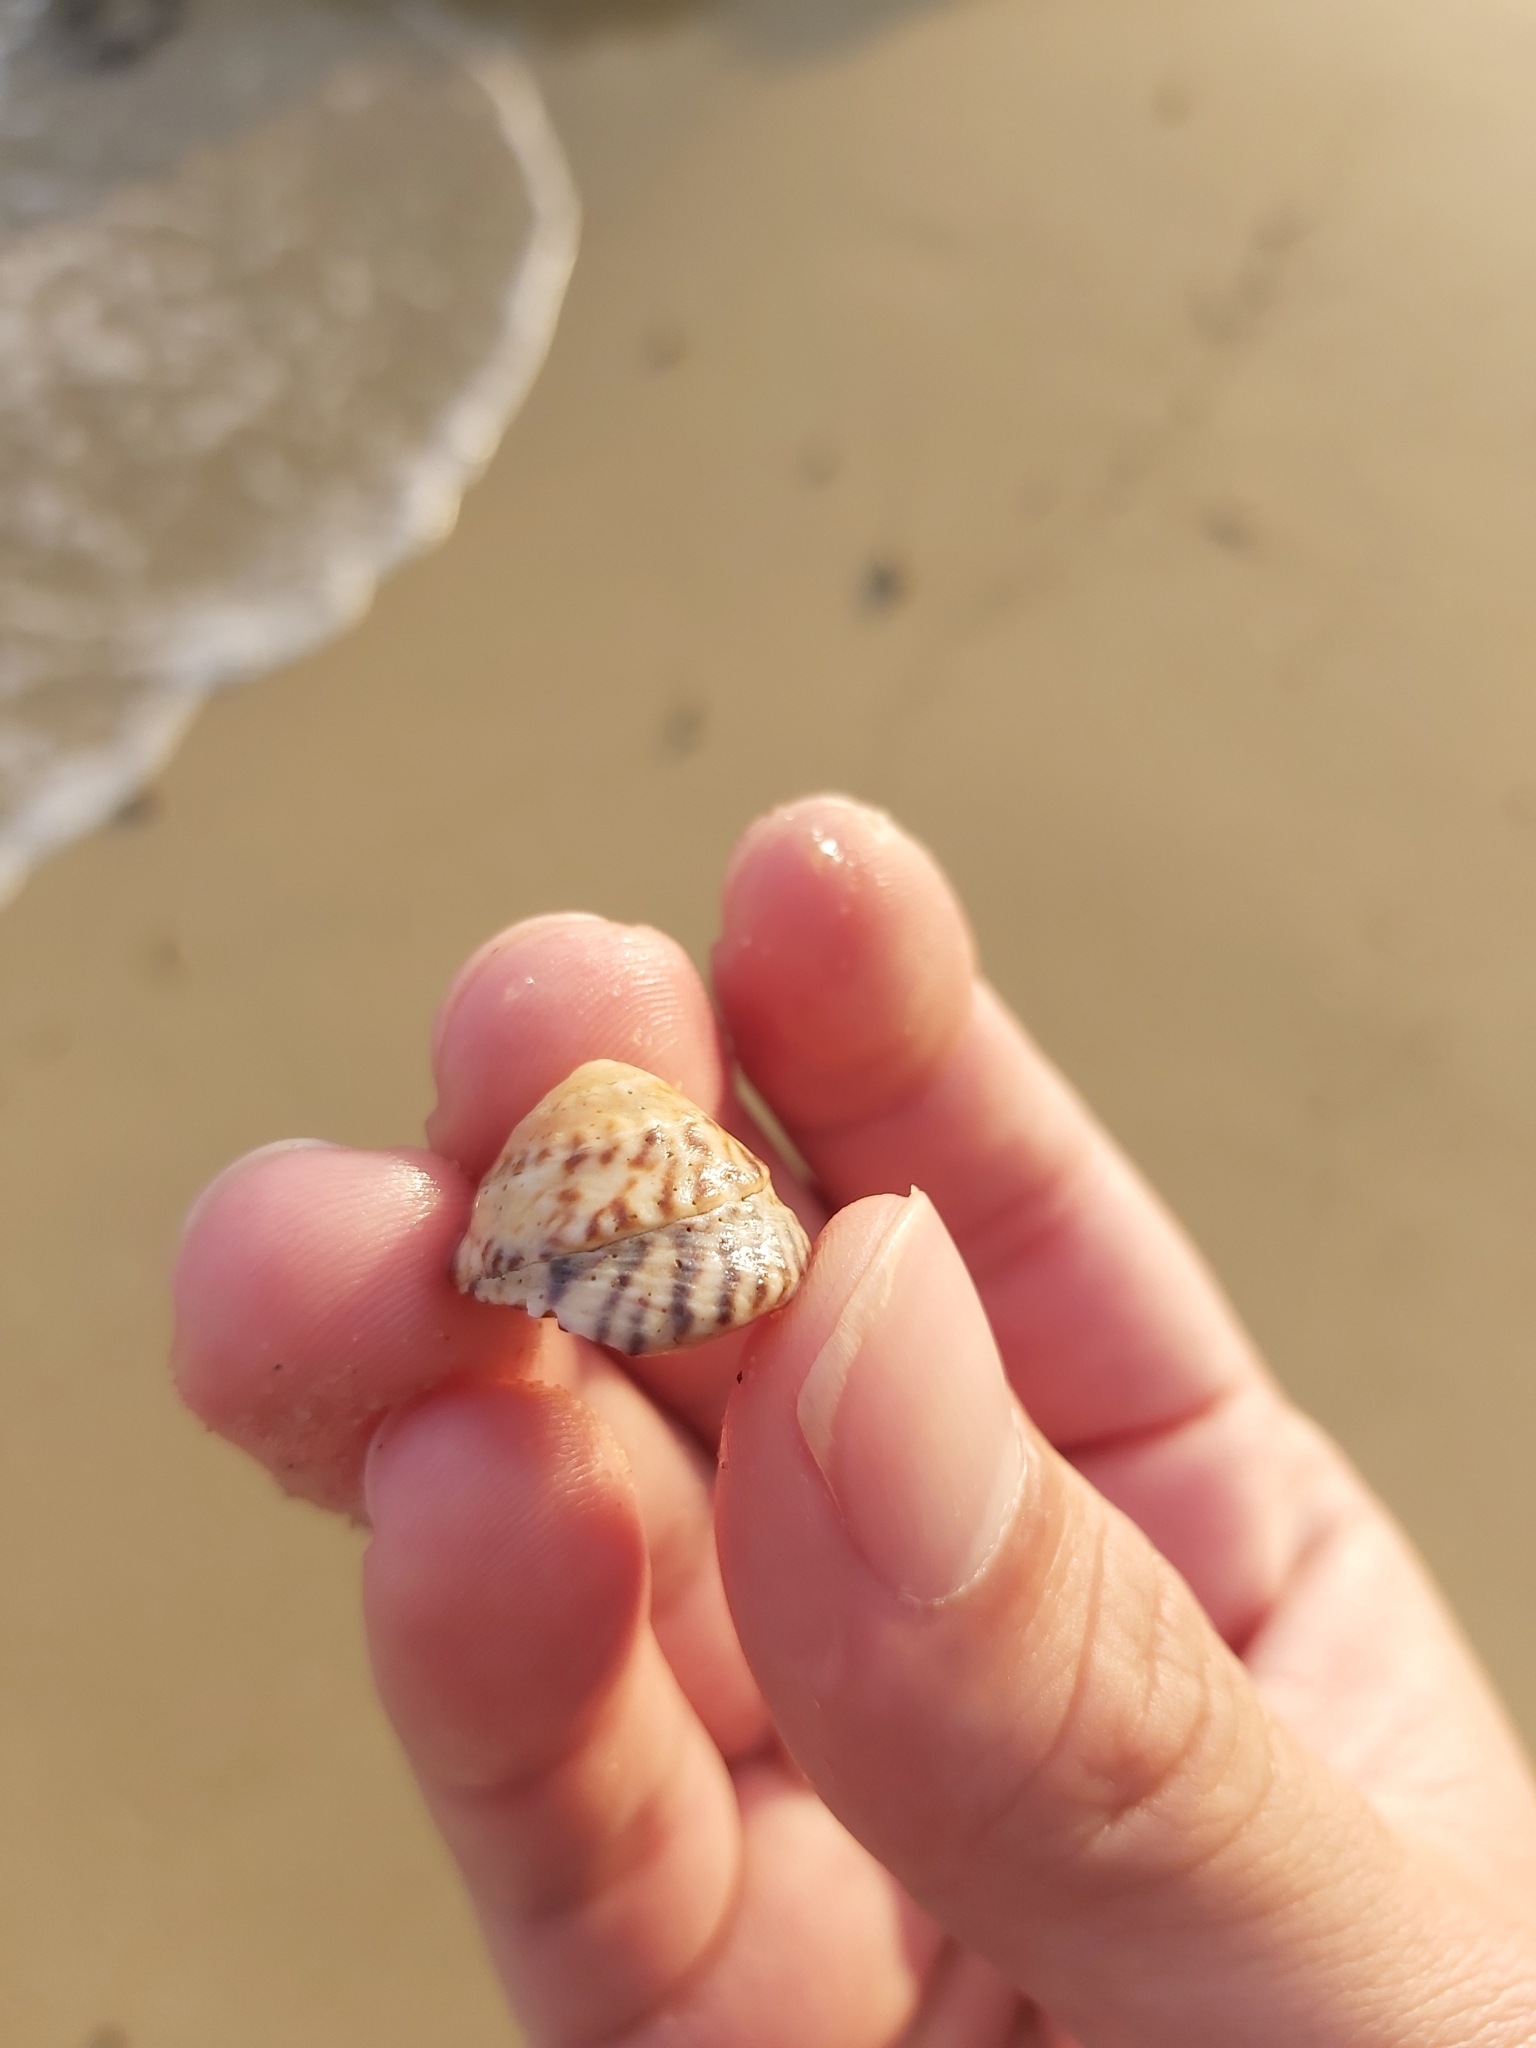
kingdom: Animalia
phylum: Mollusca
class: Gastropoda
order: Littorinimorpha
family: Littorinidae
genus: Bembicium
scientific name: Bembicium nanum
